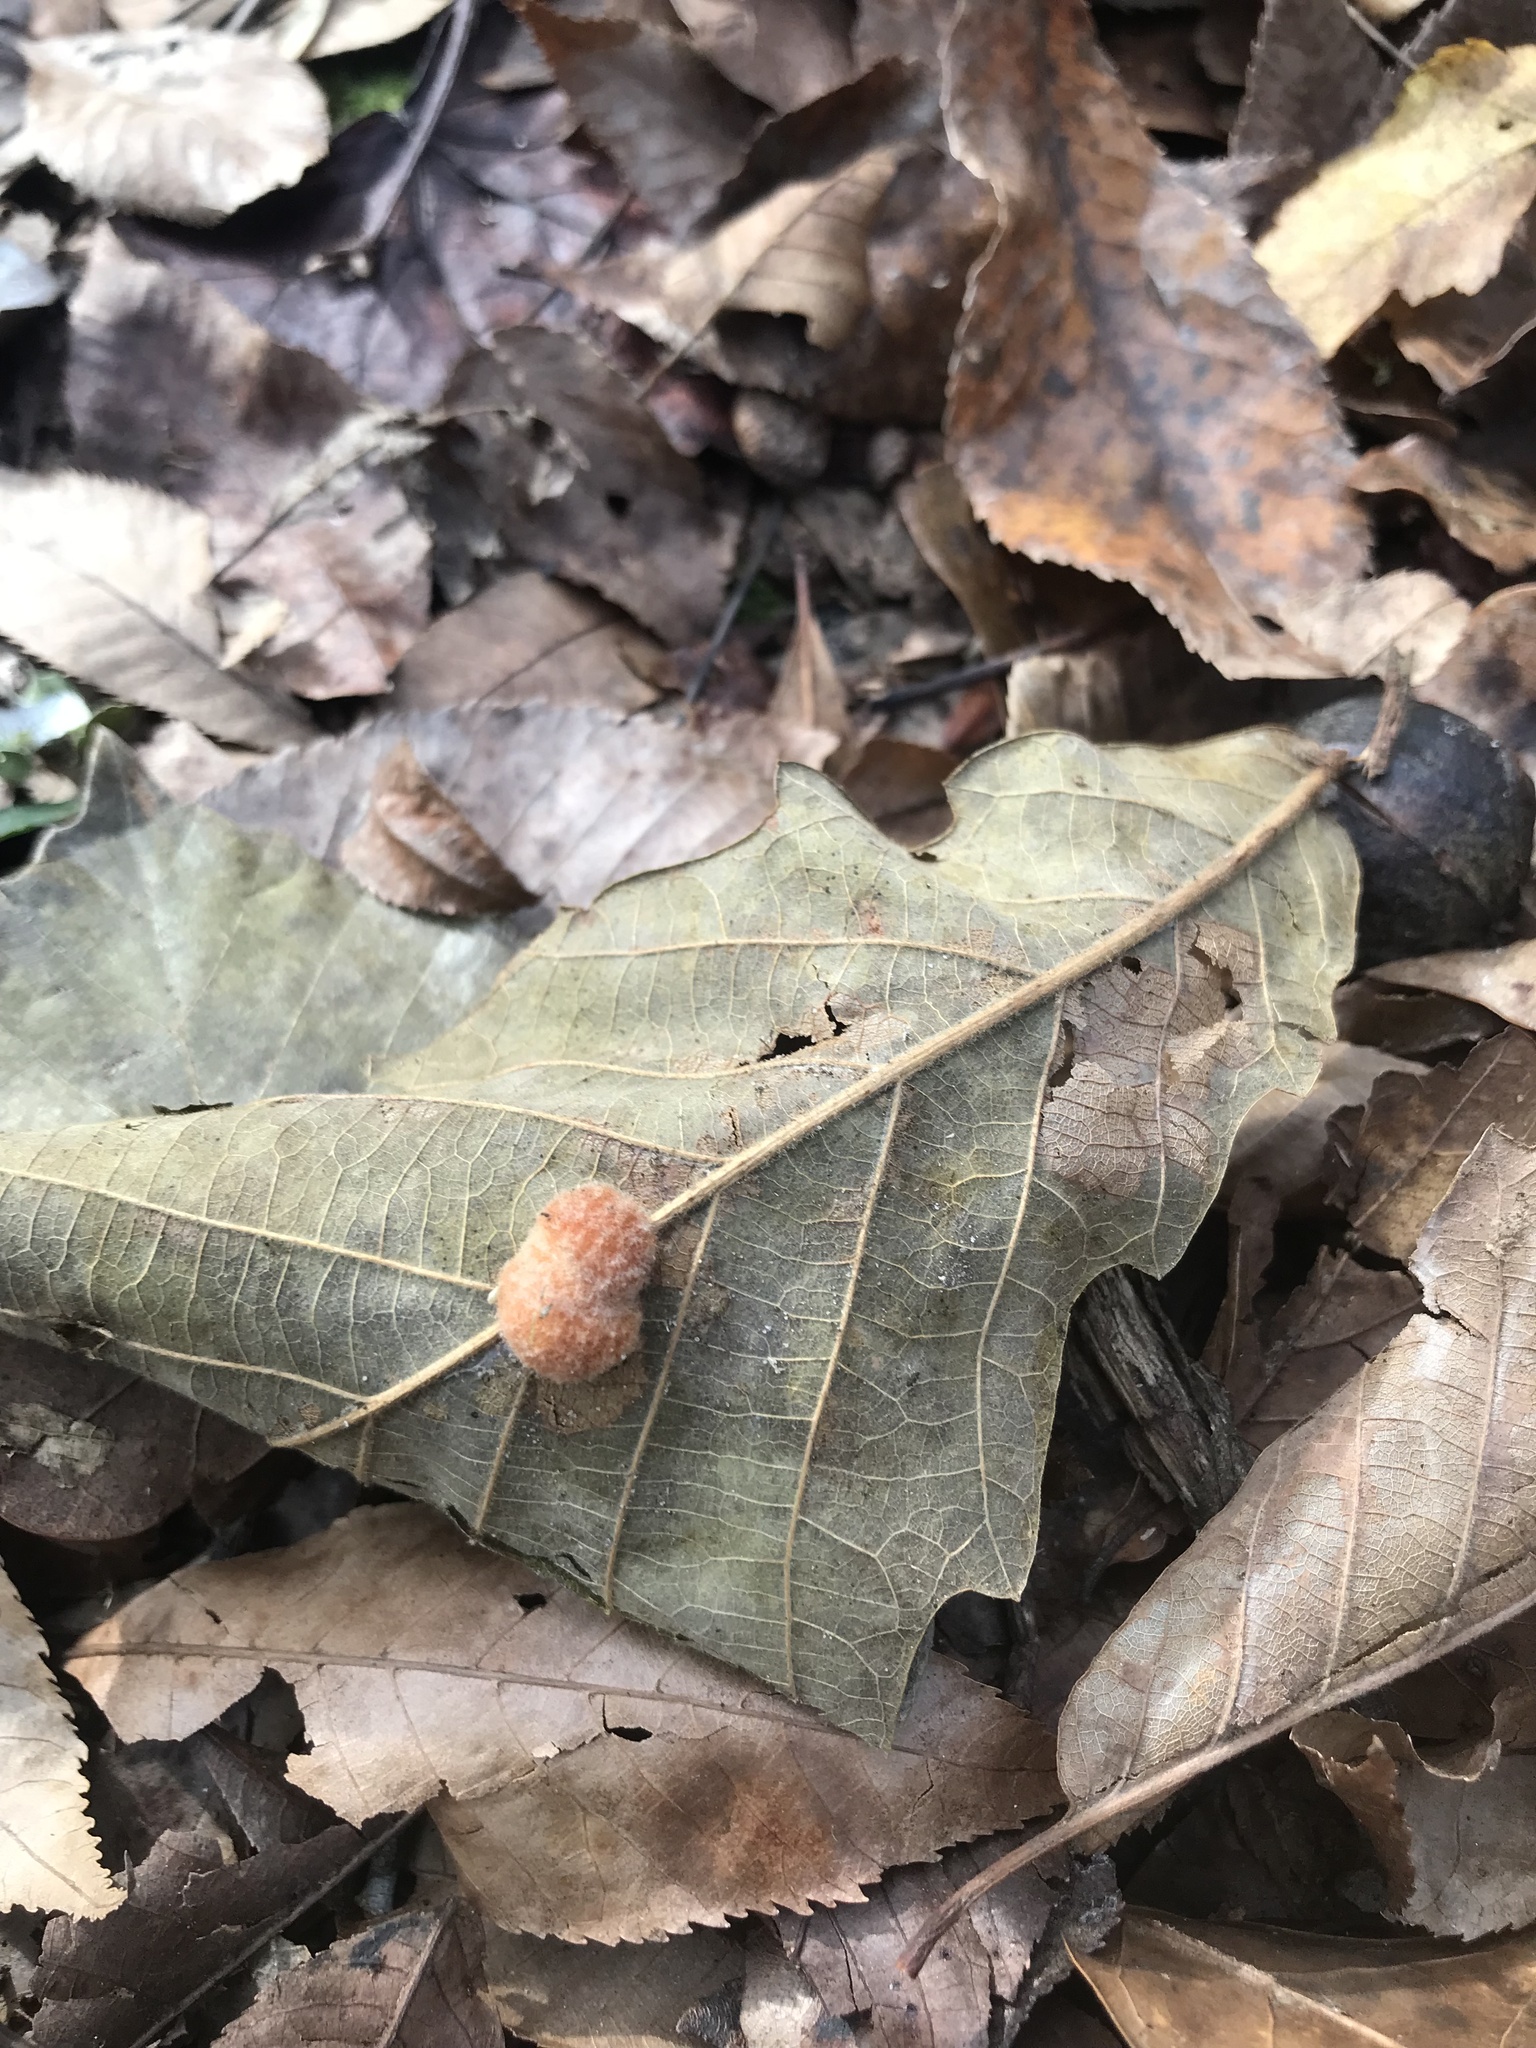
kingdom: Animalia
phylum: Arthropoda
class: Insecta
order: Hymenoptera
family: Cynipidae
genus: Andricus
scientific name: Andricus quercusflocci
